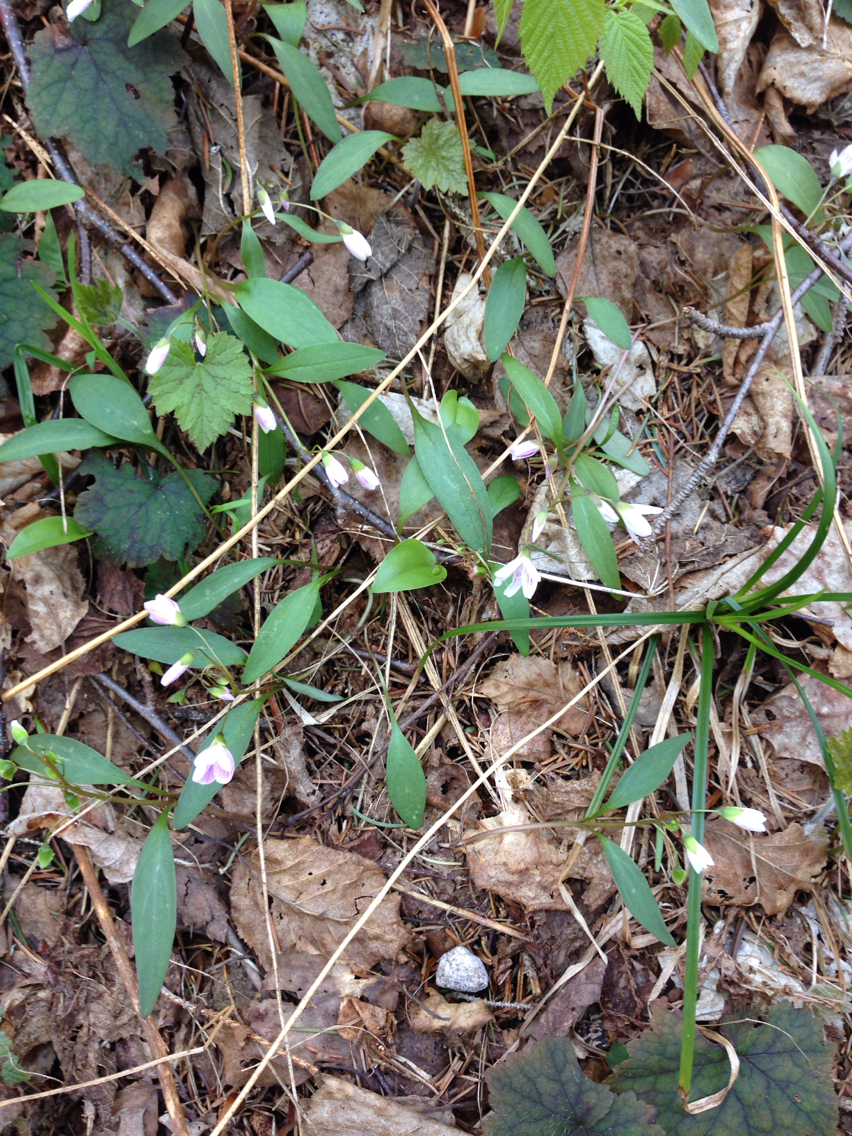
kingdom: Plantae
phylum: Tracheophyta
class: Magnoliopsida
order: Caryophyllales
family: Montiaceae
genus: Claytonia
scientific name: Claytonia caroliniana
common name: Carolina spring beauty
